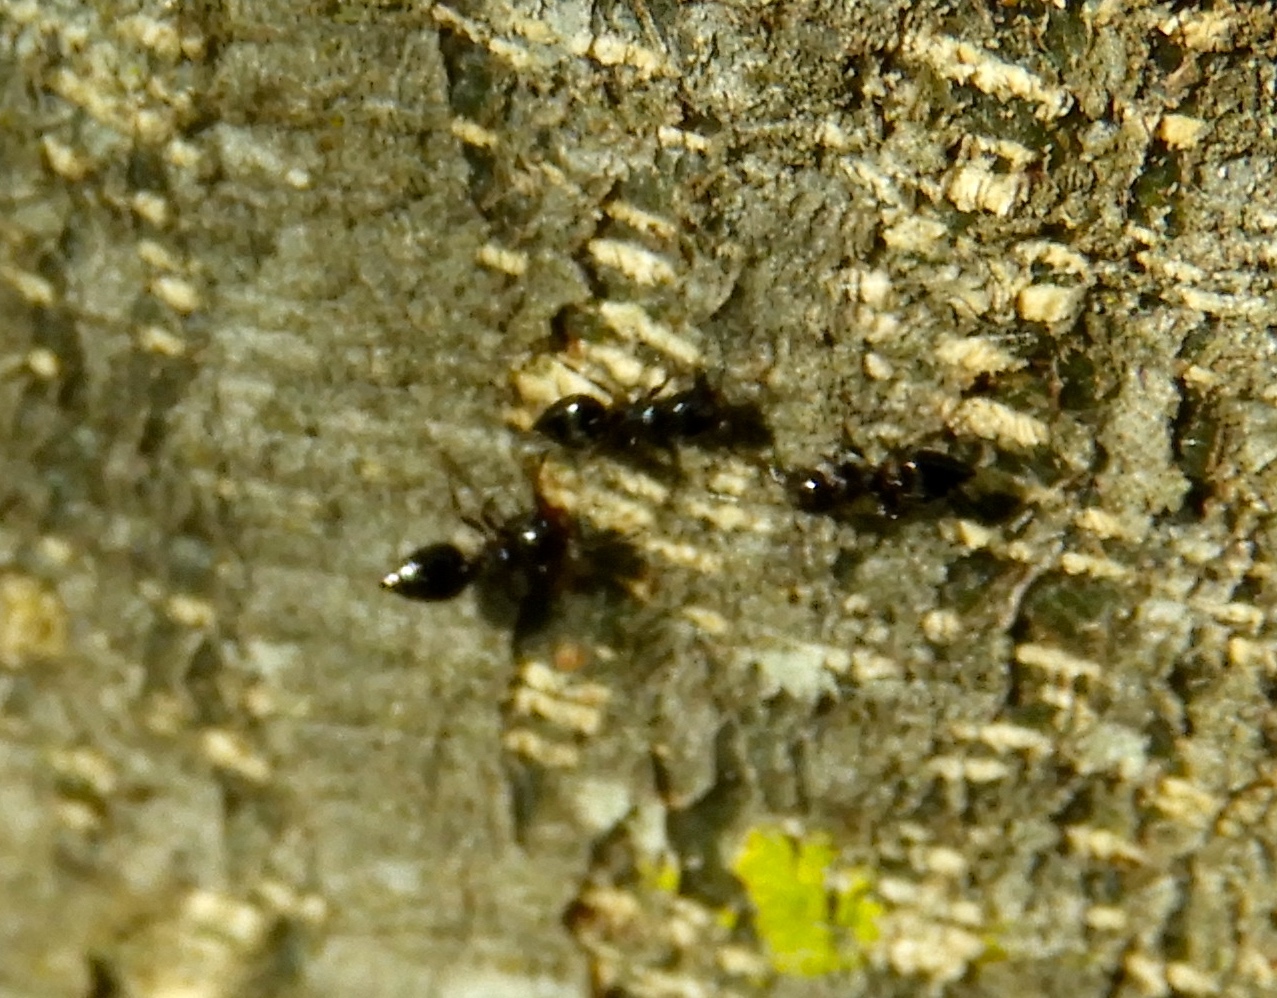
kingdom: Animalia
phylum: Arthropoda
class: Insecta
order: Hymenoptera
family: Formicidae
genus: Crematogaster
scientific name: Crematogaster
